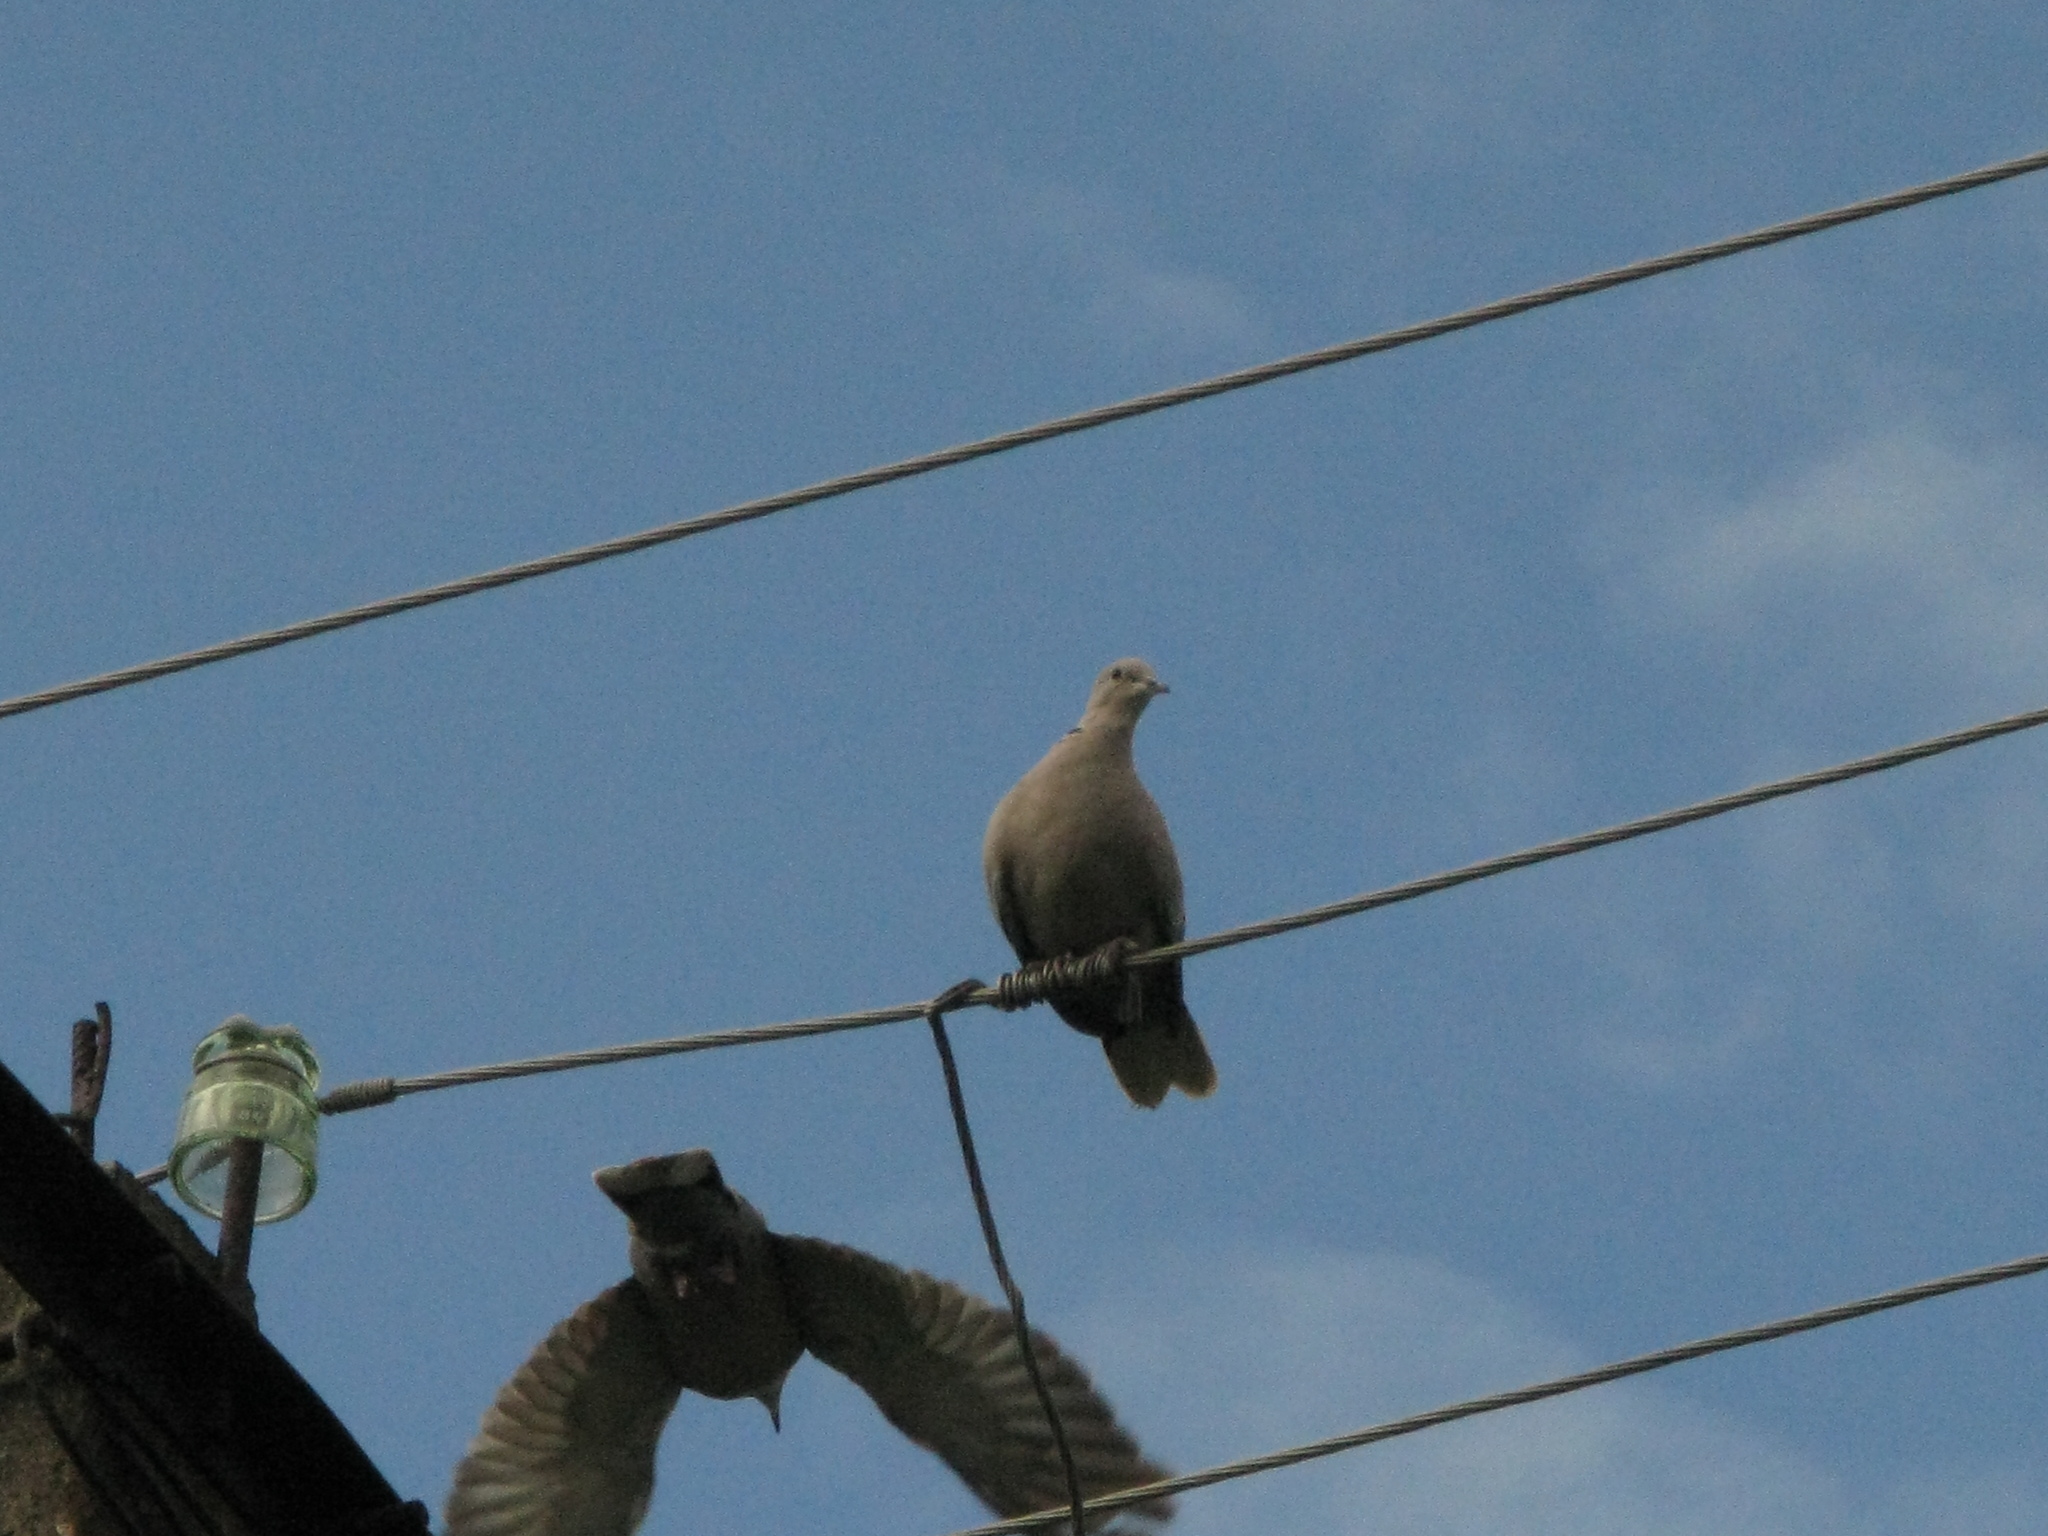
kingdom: Animalia
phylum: Chordata
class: Aves
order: Columbiformes
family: Columbidae
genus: Streptopelia
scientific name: Streptopelia decaocto
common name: Eurasian collared dove
